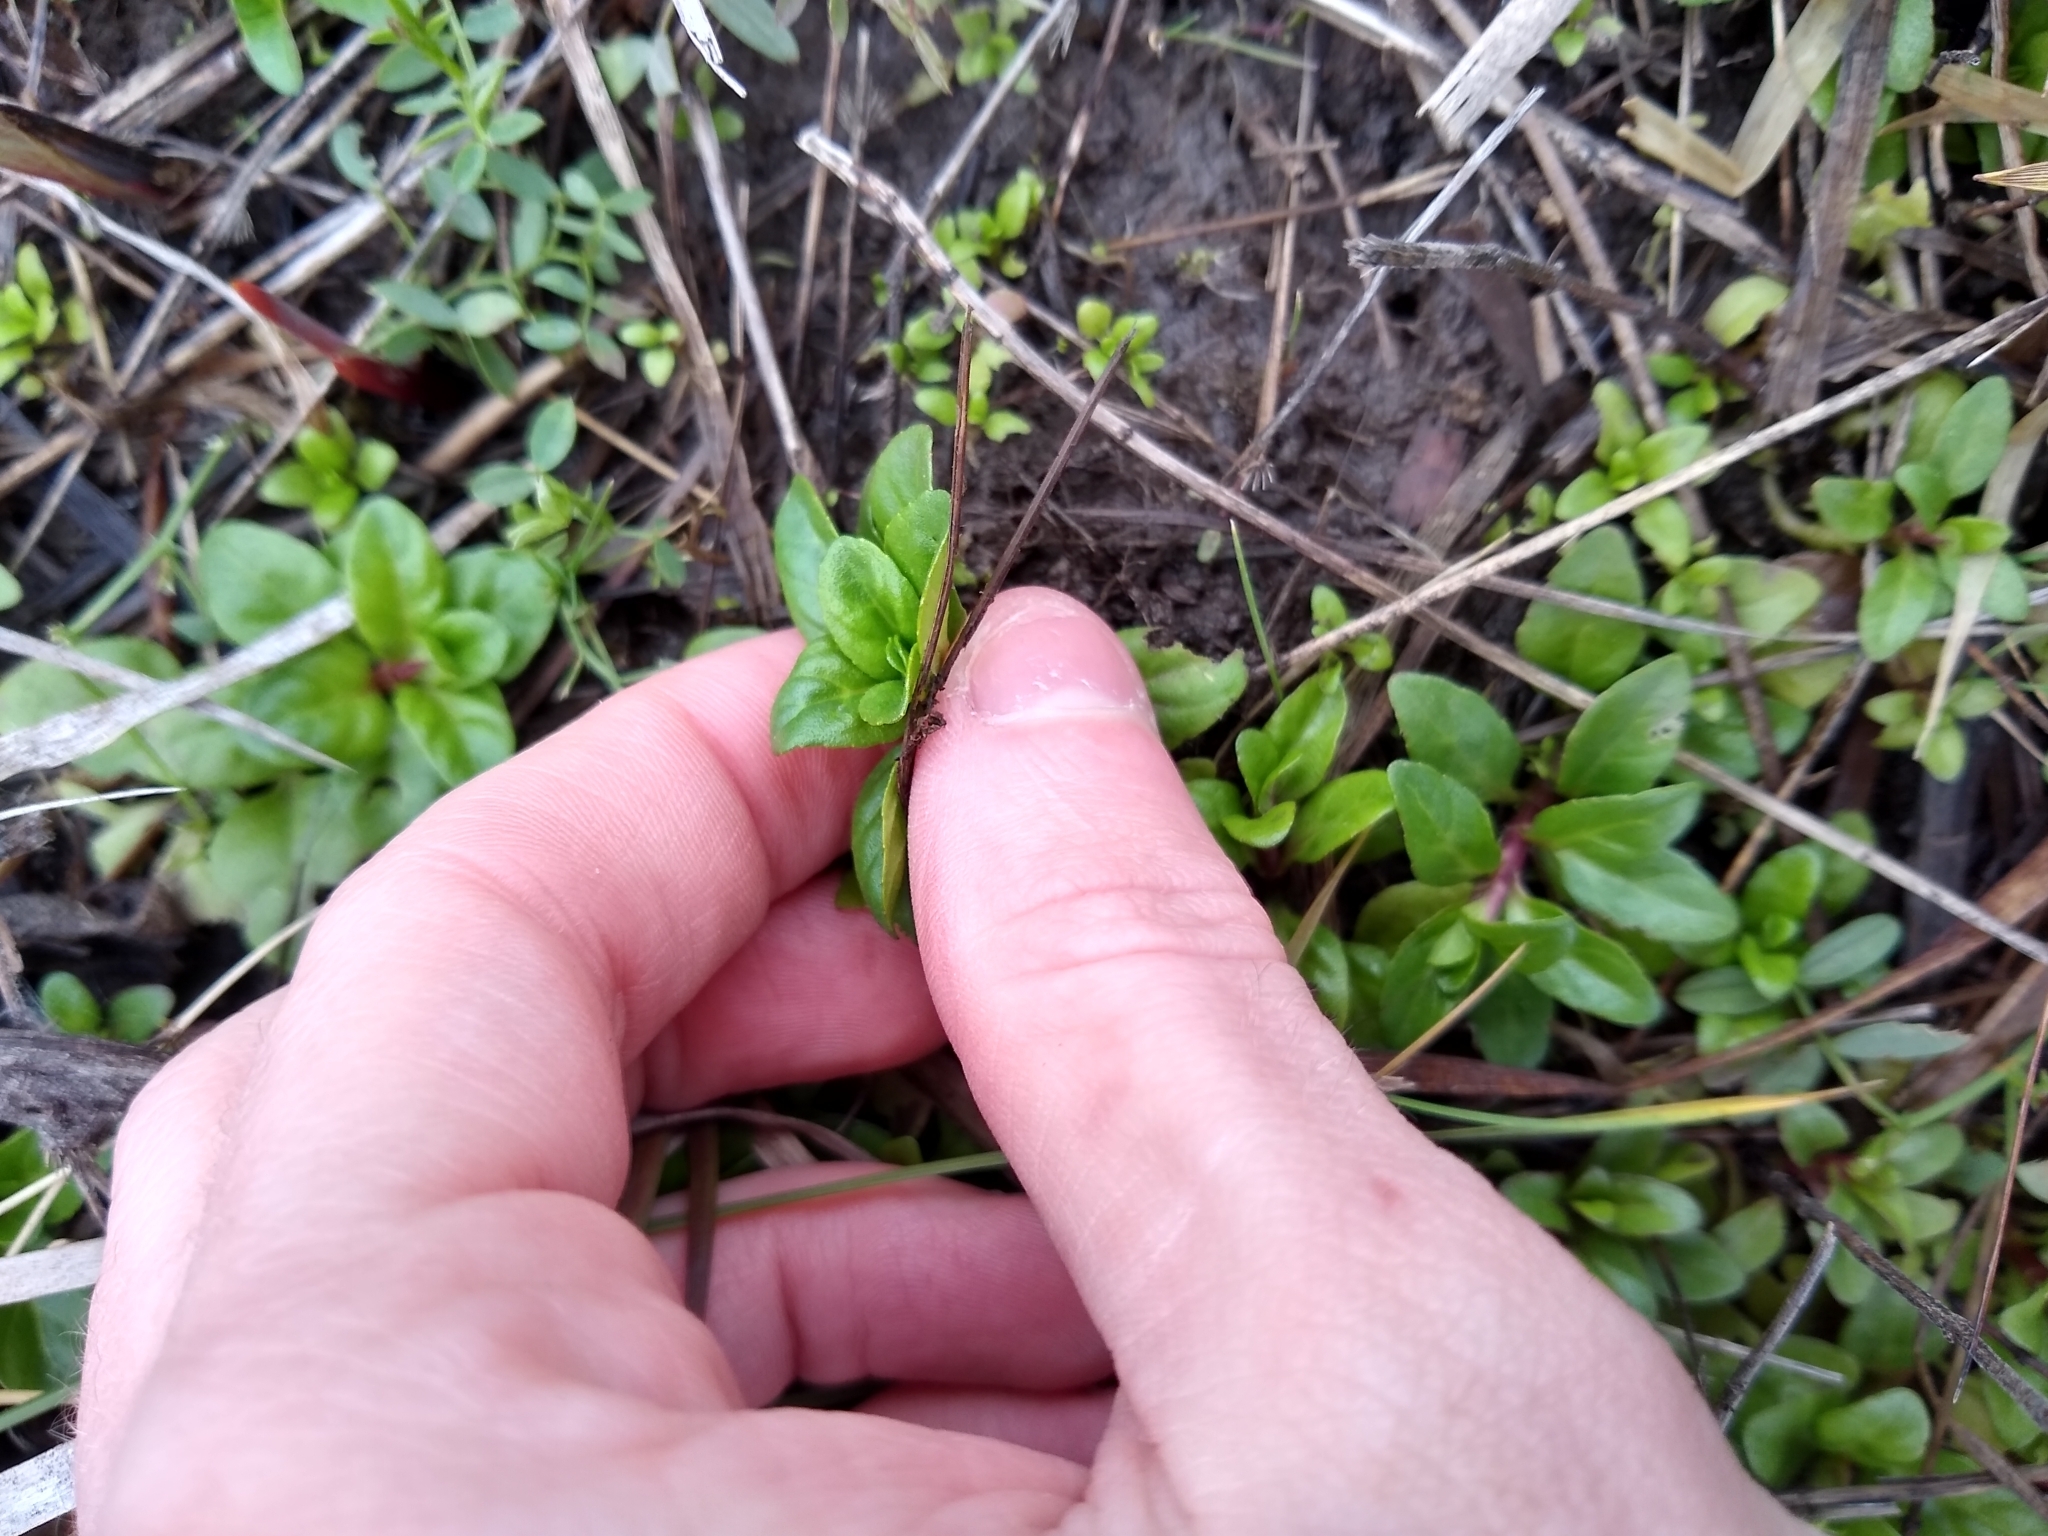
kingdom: Plantae
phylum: Tracheophyta
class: Magnoliopsida
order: Lamiales
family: Lamiaceae
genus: Mentha
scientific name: Mentha pulegium
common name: Pennyroyal
